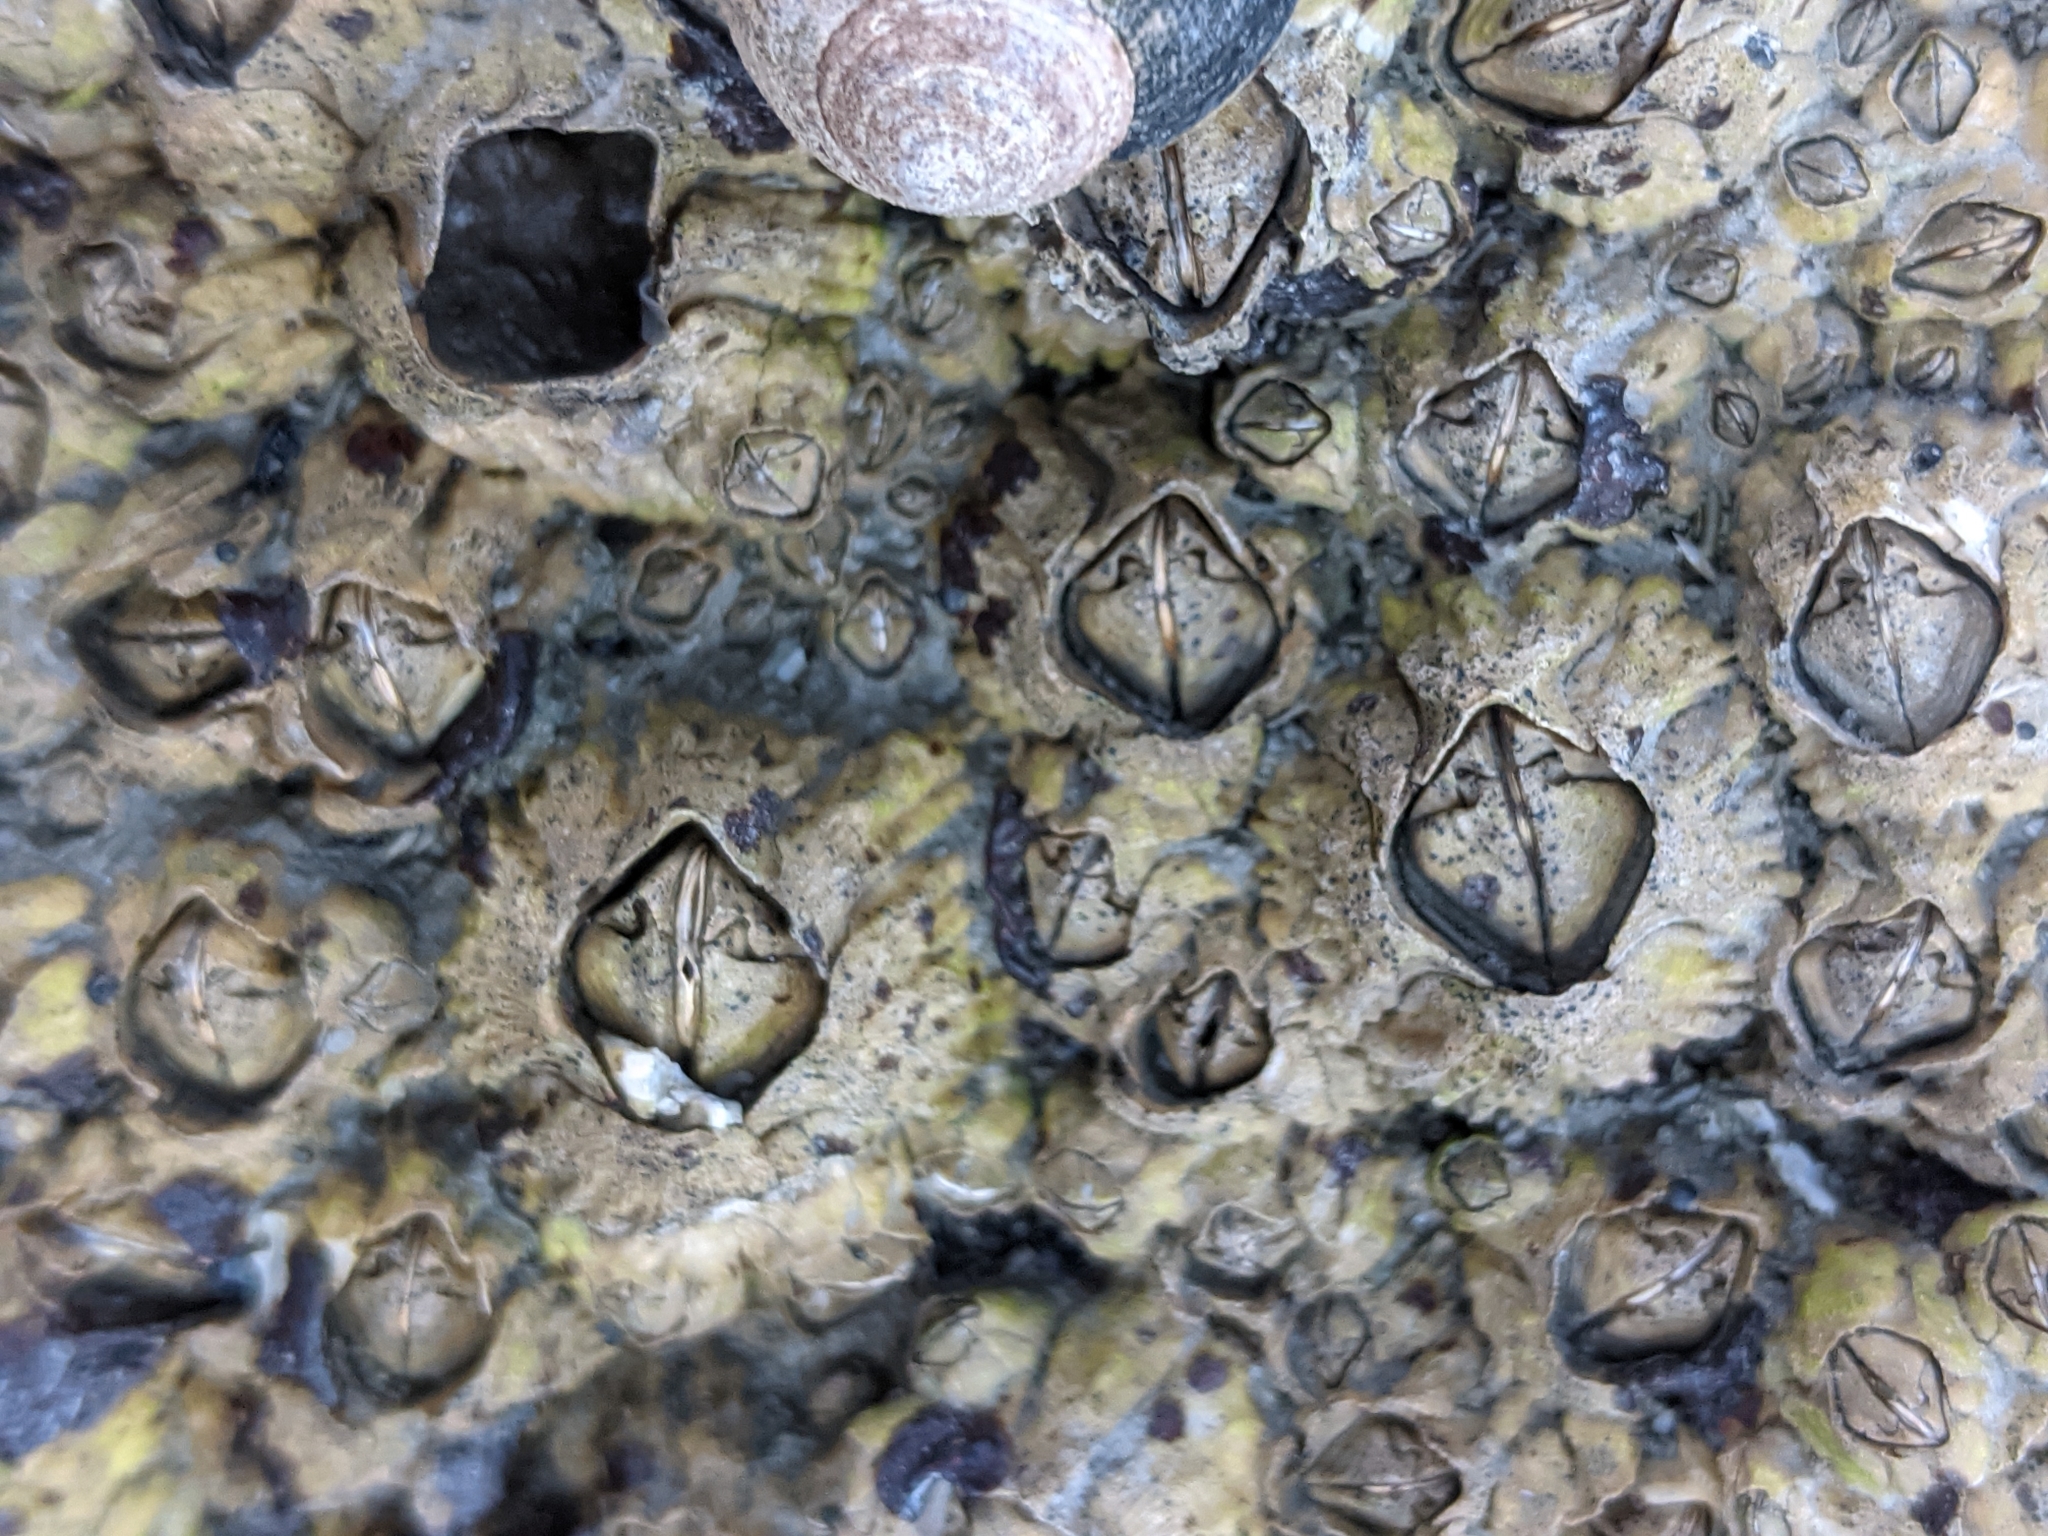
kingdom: Animalia
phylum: Arthropoda
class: Maxillopoda
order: Sessilia
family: Archaeobalanidae
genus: Semibalanus
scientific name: Semibalanus balanoides
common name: Acorn barnacle
